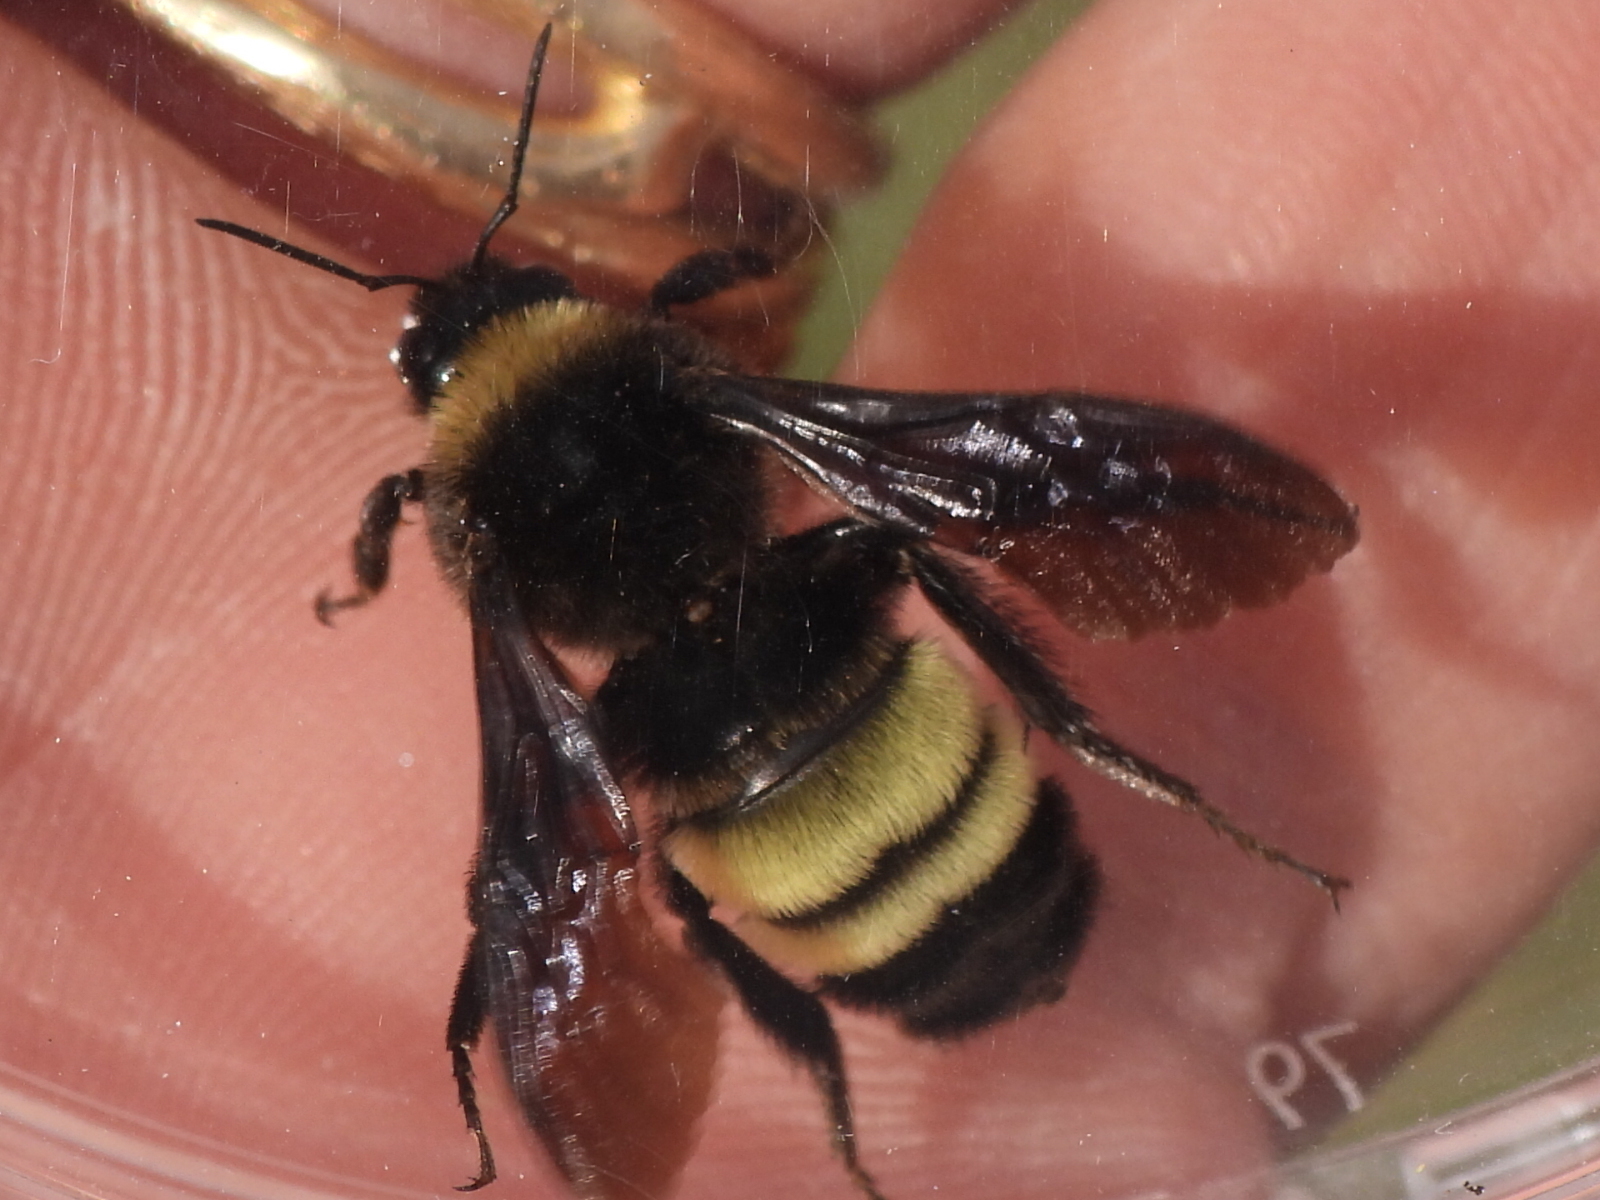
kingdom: Animalia
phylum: Arthropoda
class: Insecta
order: Hymenoptera
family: Apidae
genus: Bombus
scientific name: Bombus pensylvanicus
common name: Bumble bee
